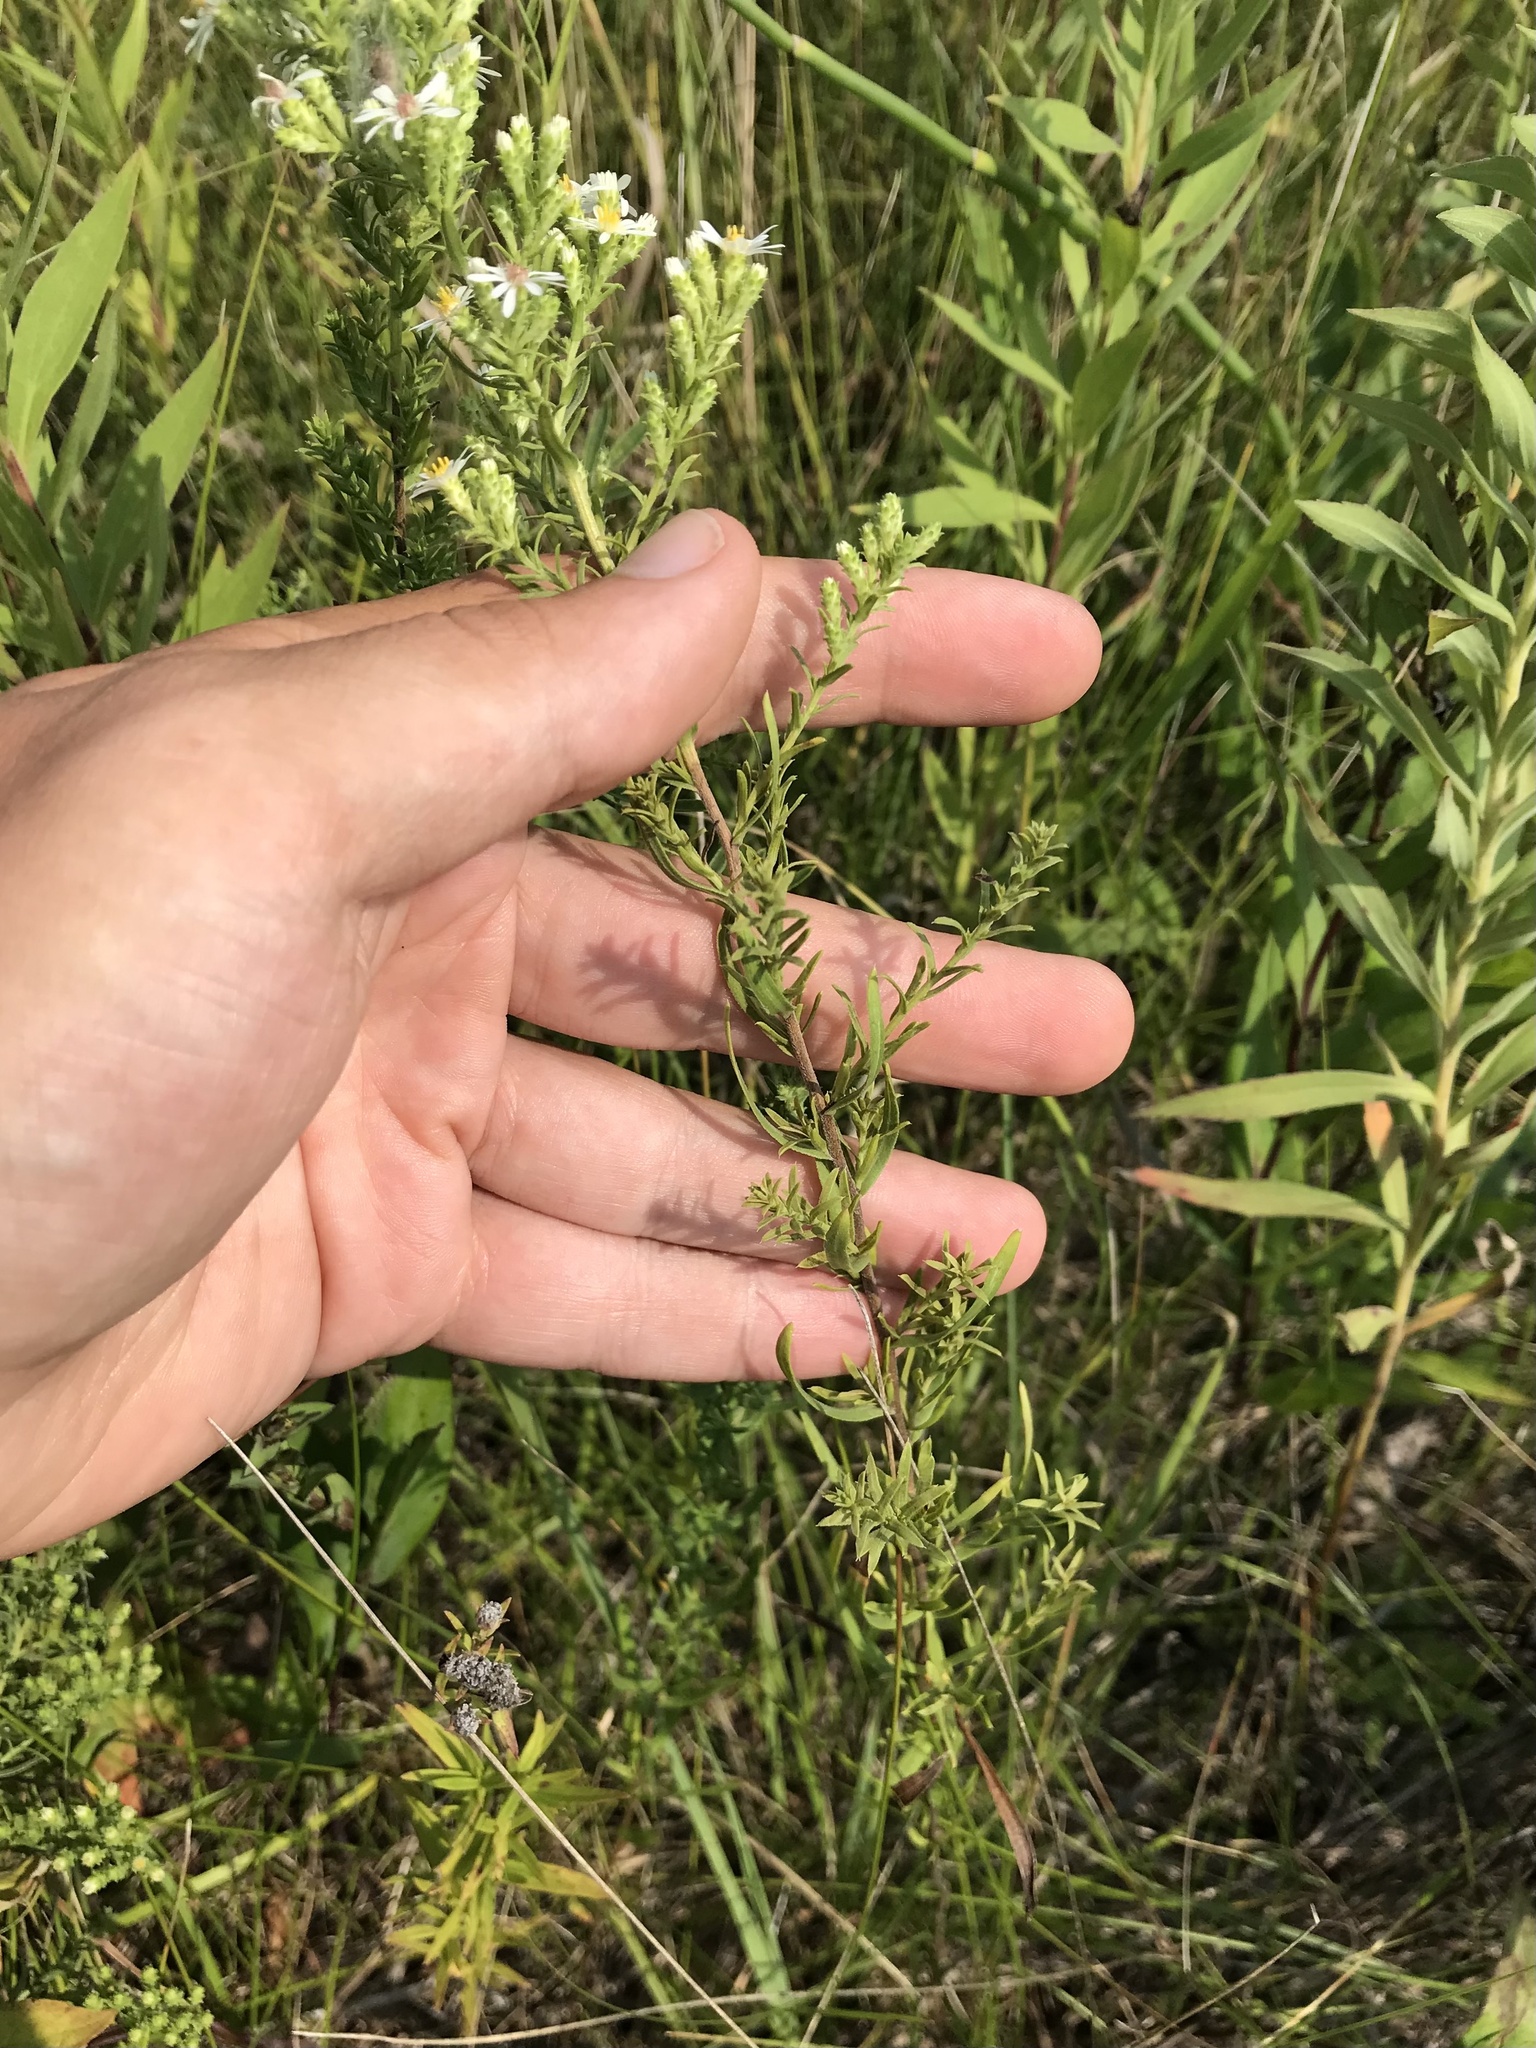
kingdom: Plantae
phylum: Tracheophyta
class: Magnoliopsida
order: Asterales
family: Asteraceae
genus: Symphyotrichum
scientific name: Symphyotrichum ericoides
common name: Heath aster
